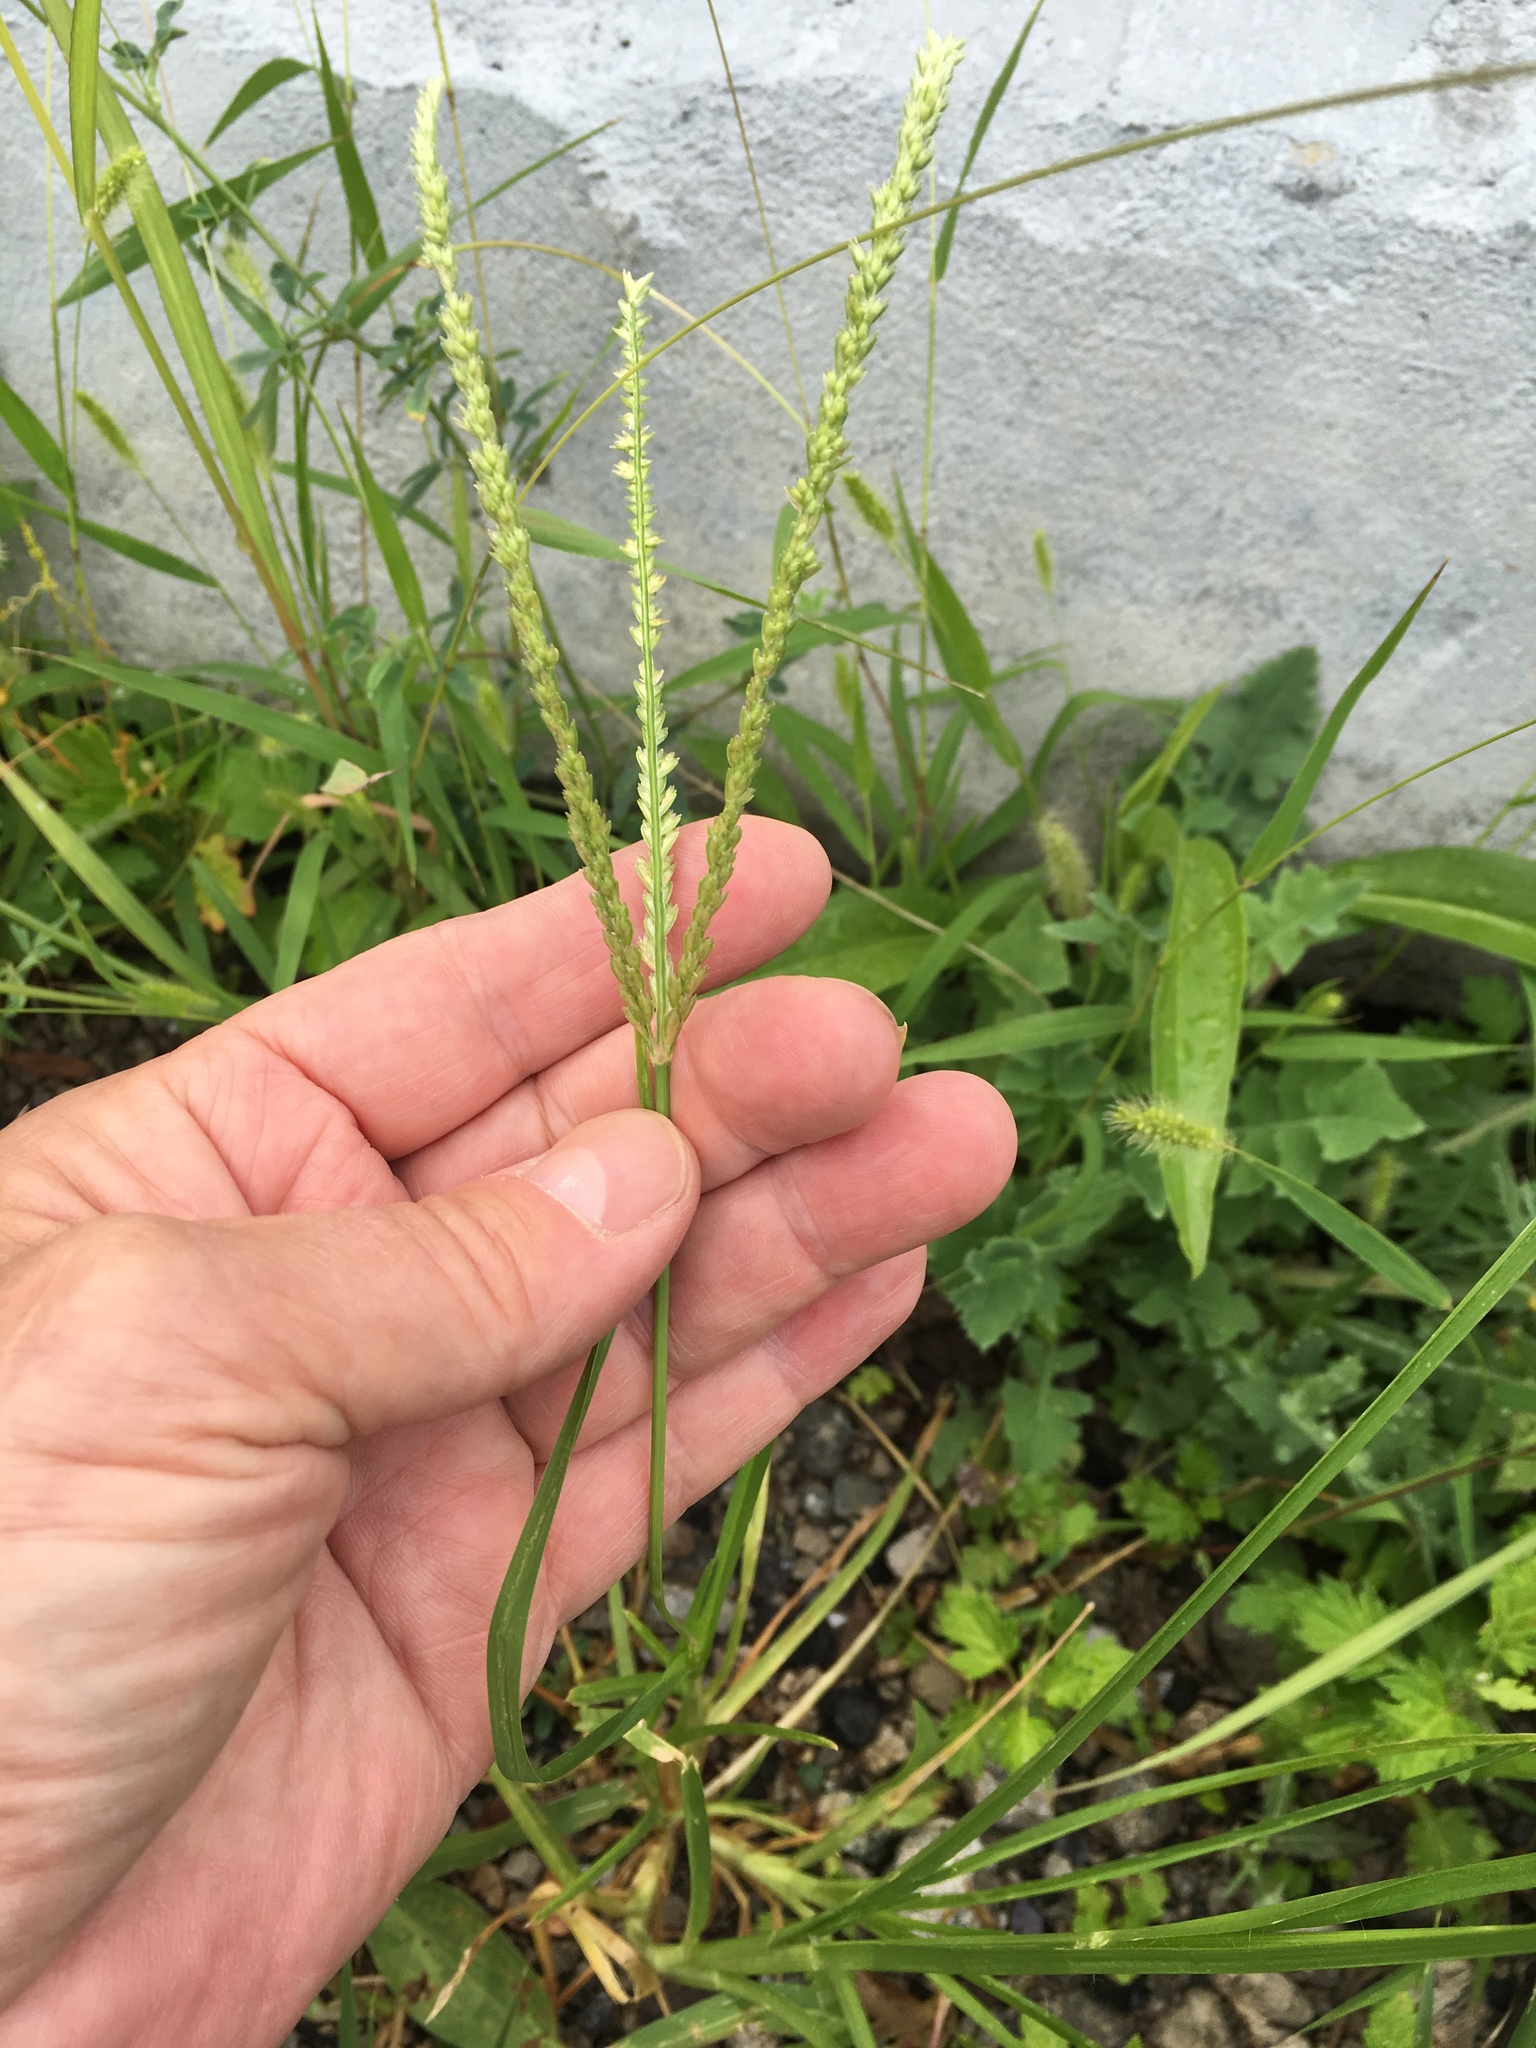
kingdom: Plantae
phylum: Tracheophyta
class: Liliopsida
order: Poales
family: Poaceae
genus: Eleusine
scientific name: Eleusine indica
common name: Yard-grass
